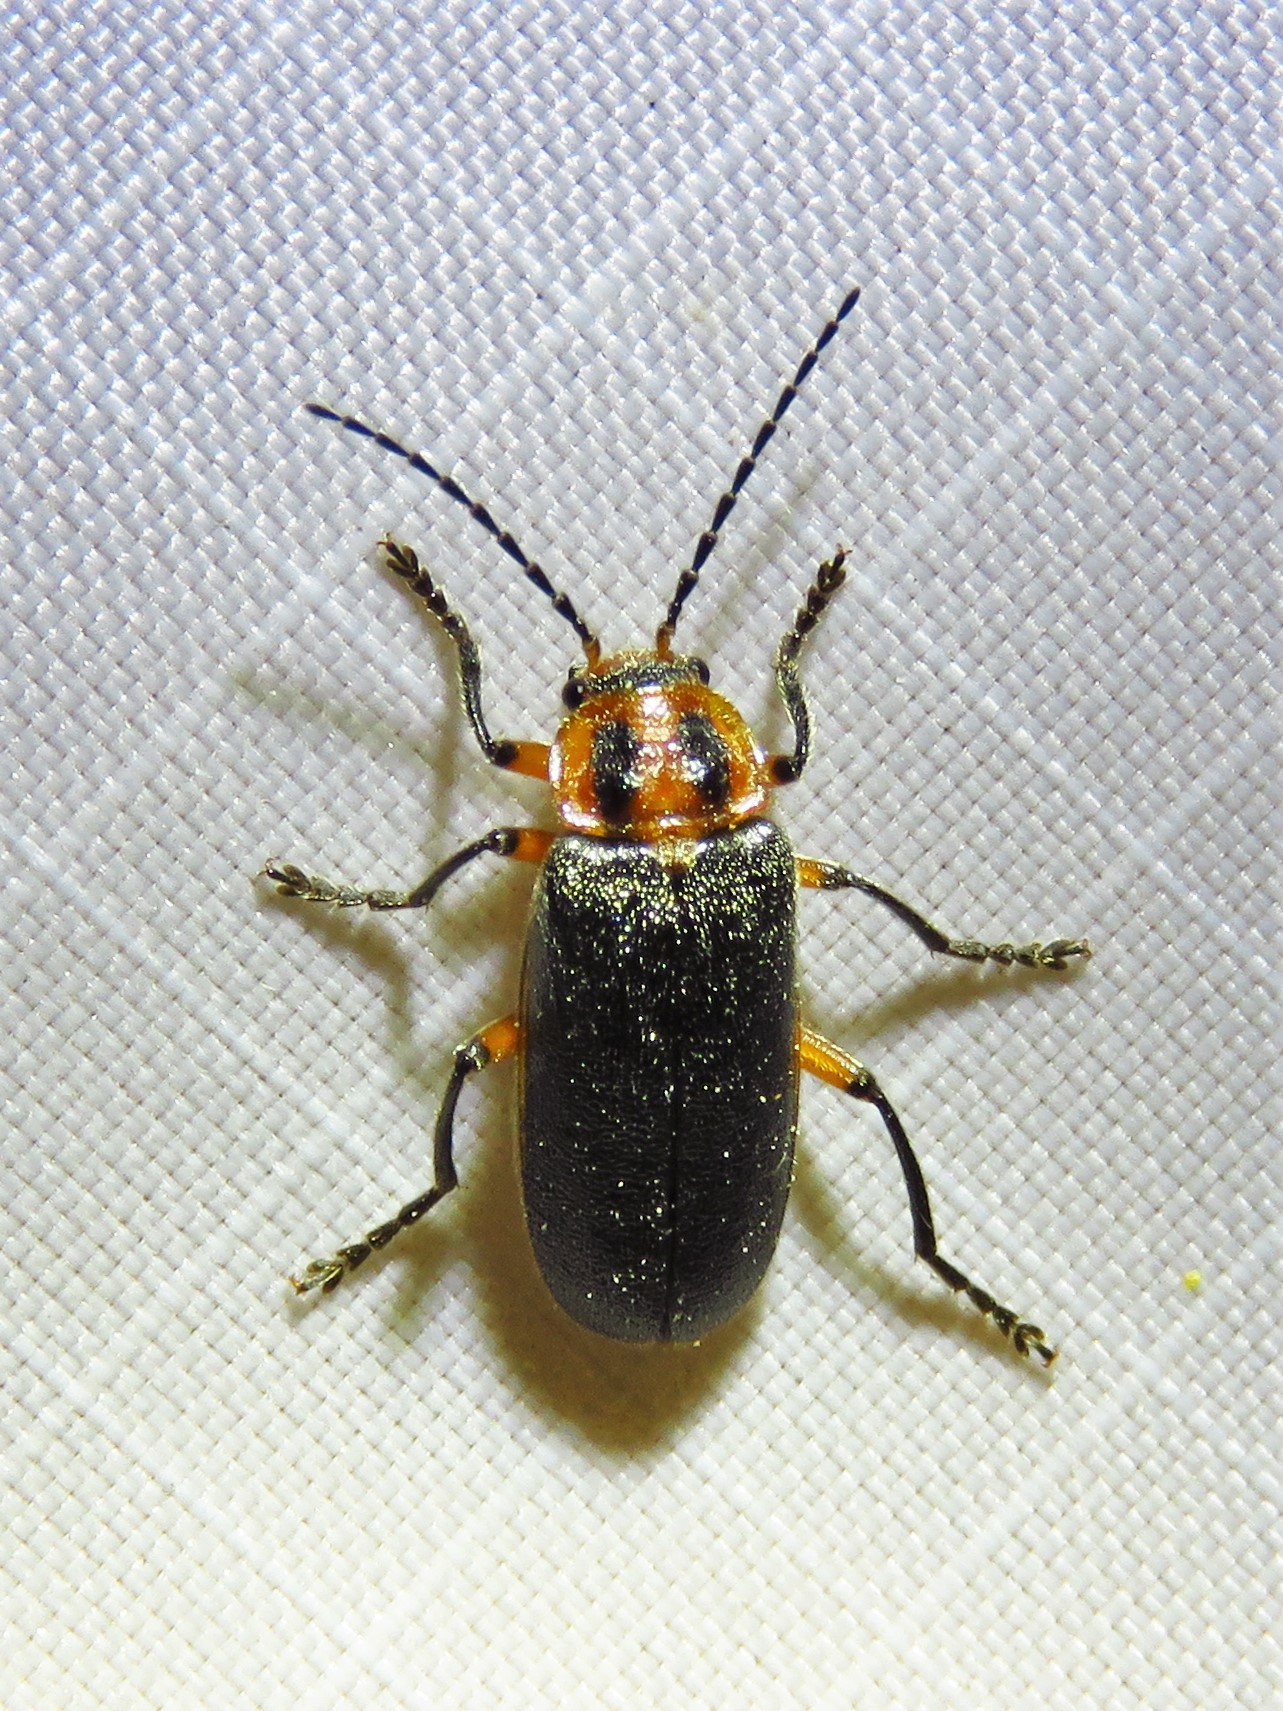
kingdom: Animalia
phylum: Arthropoda
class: Insecta
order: Coleoptera
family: Cantharidae
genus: Atalantycha
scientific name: Atalantycha bilineata
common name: Two-lined leatherwing
